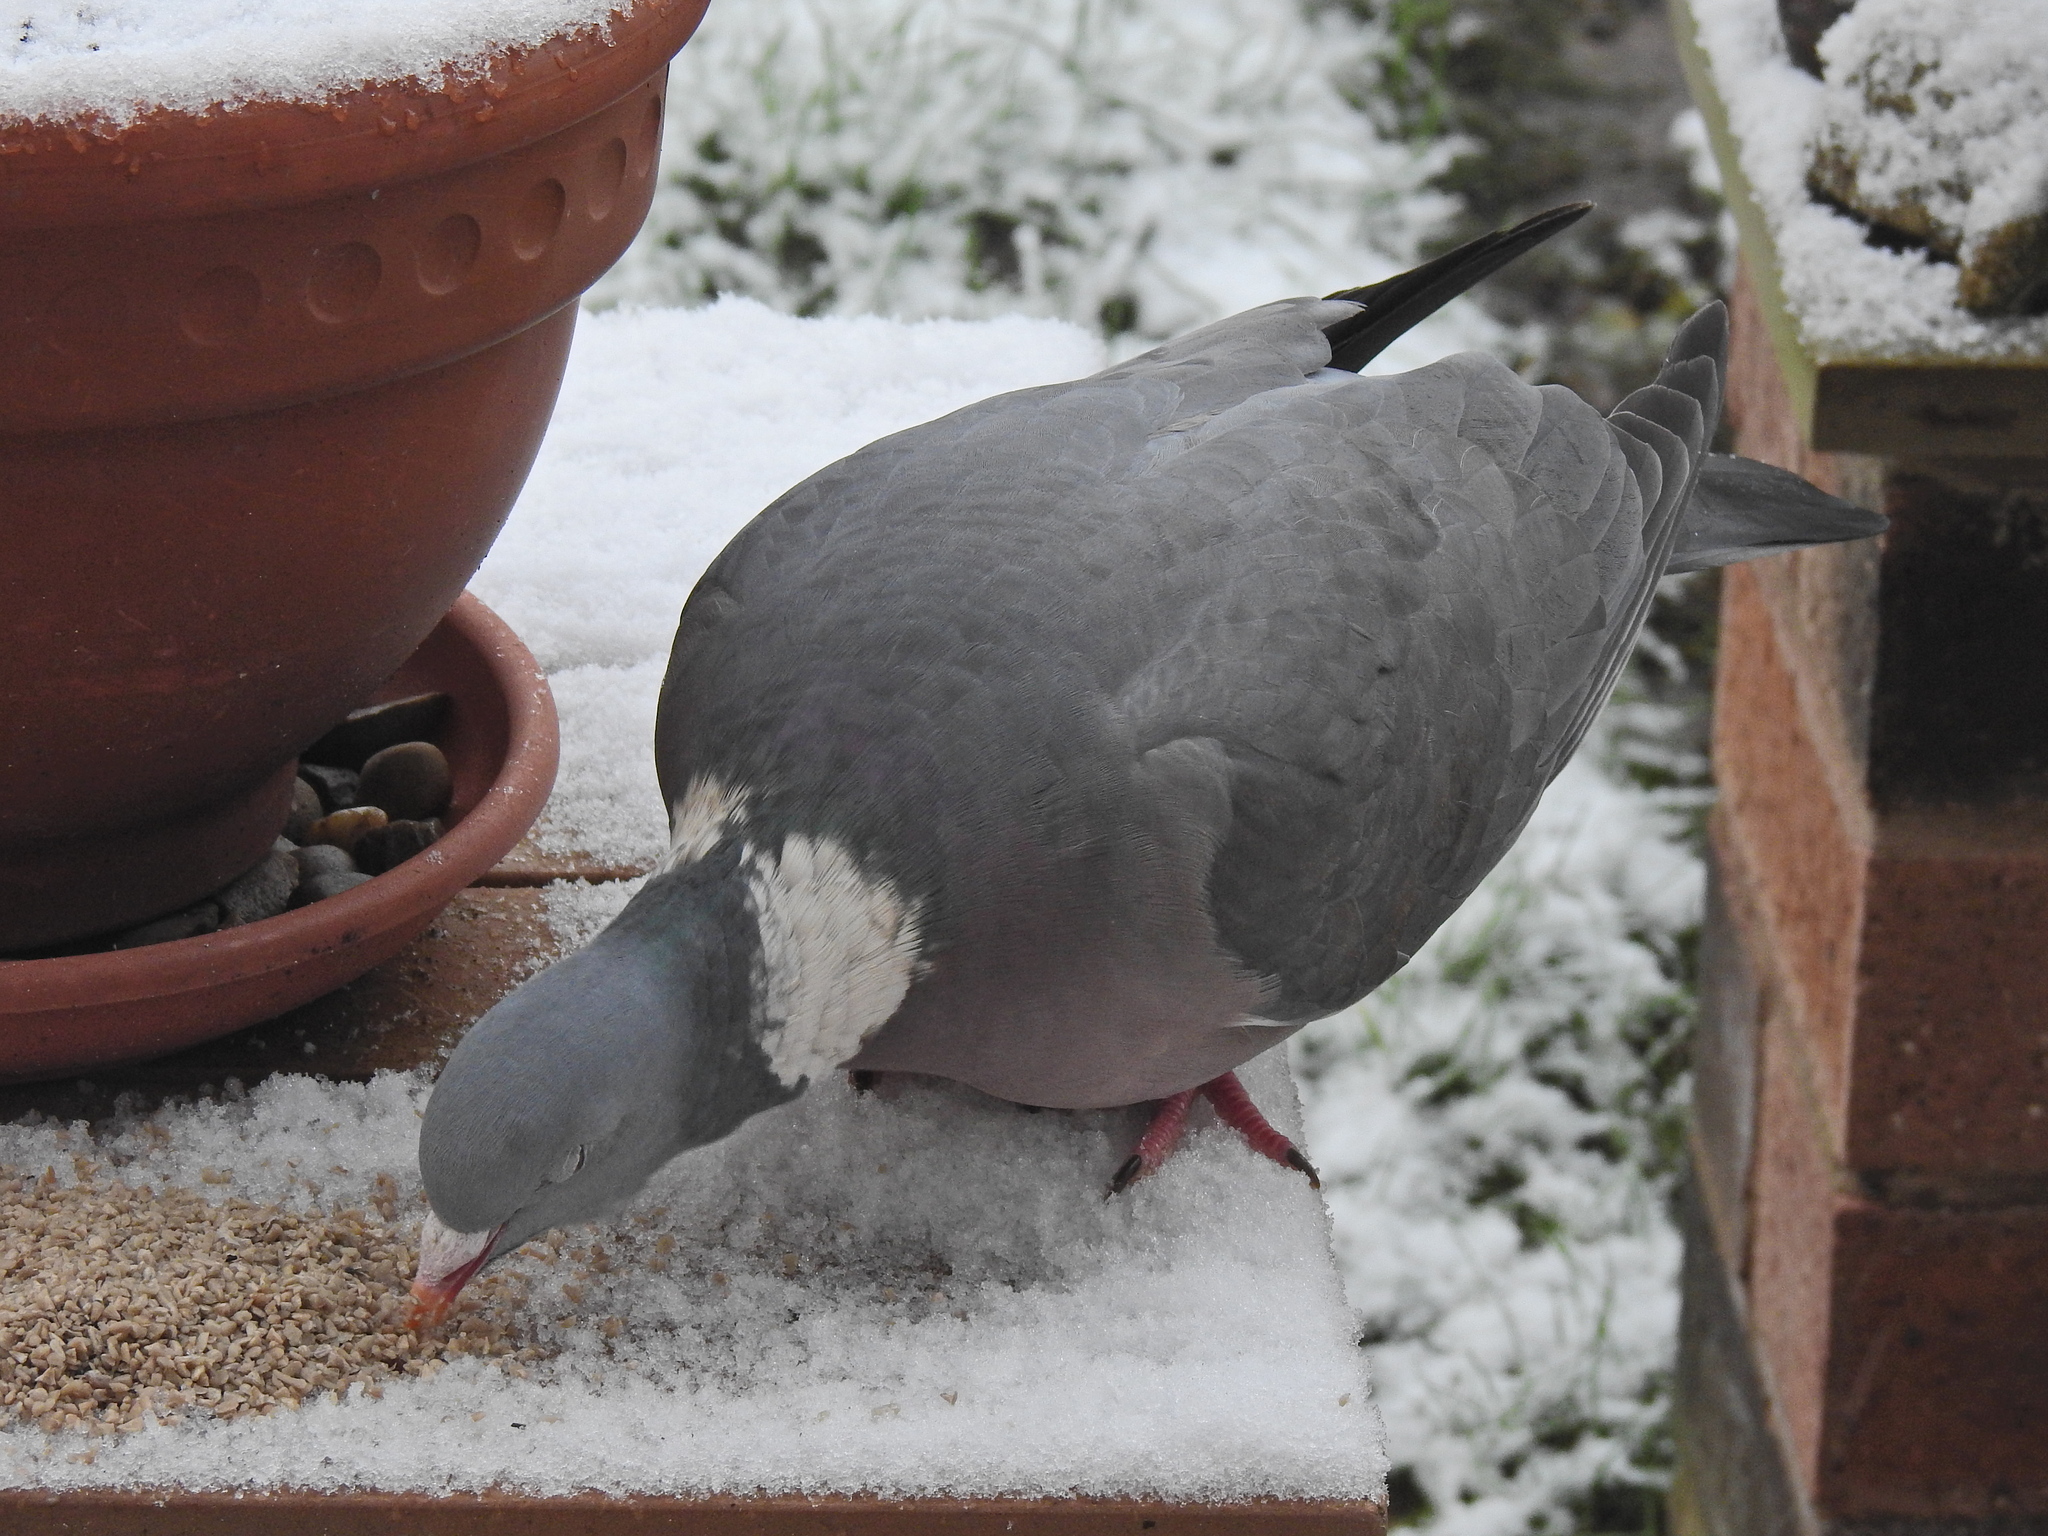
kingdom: Animalia
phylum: Chordata
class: Aves
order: Columbiformes
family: Columbidae
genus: Columba
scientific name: Columba palumbus
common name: Common wood pigeon
